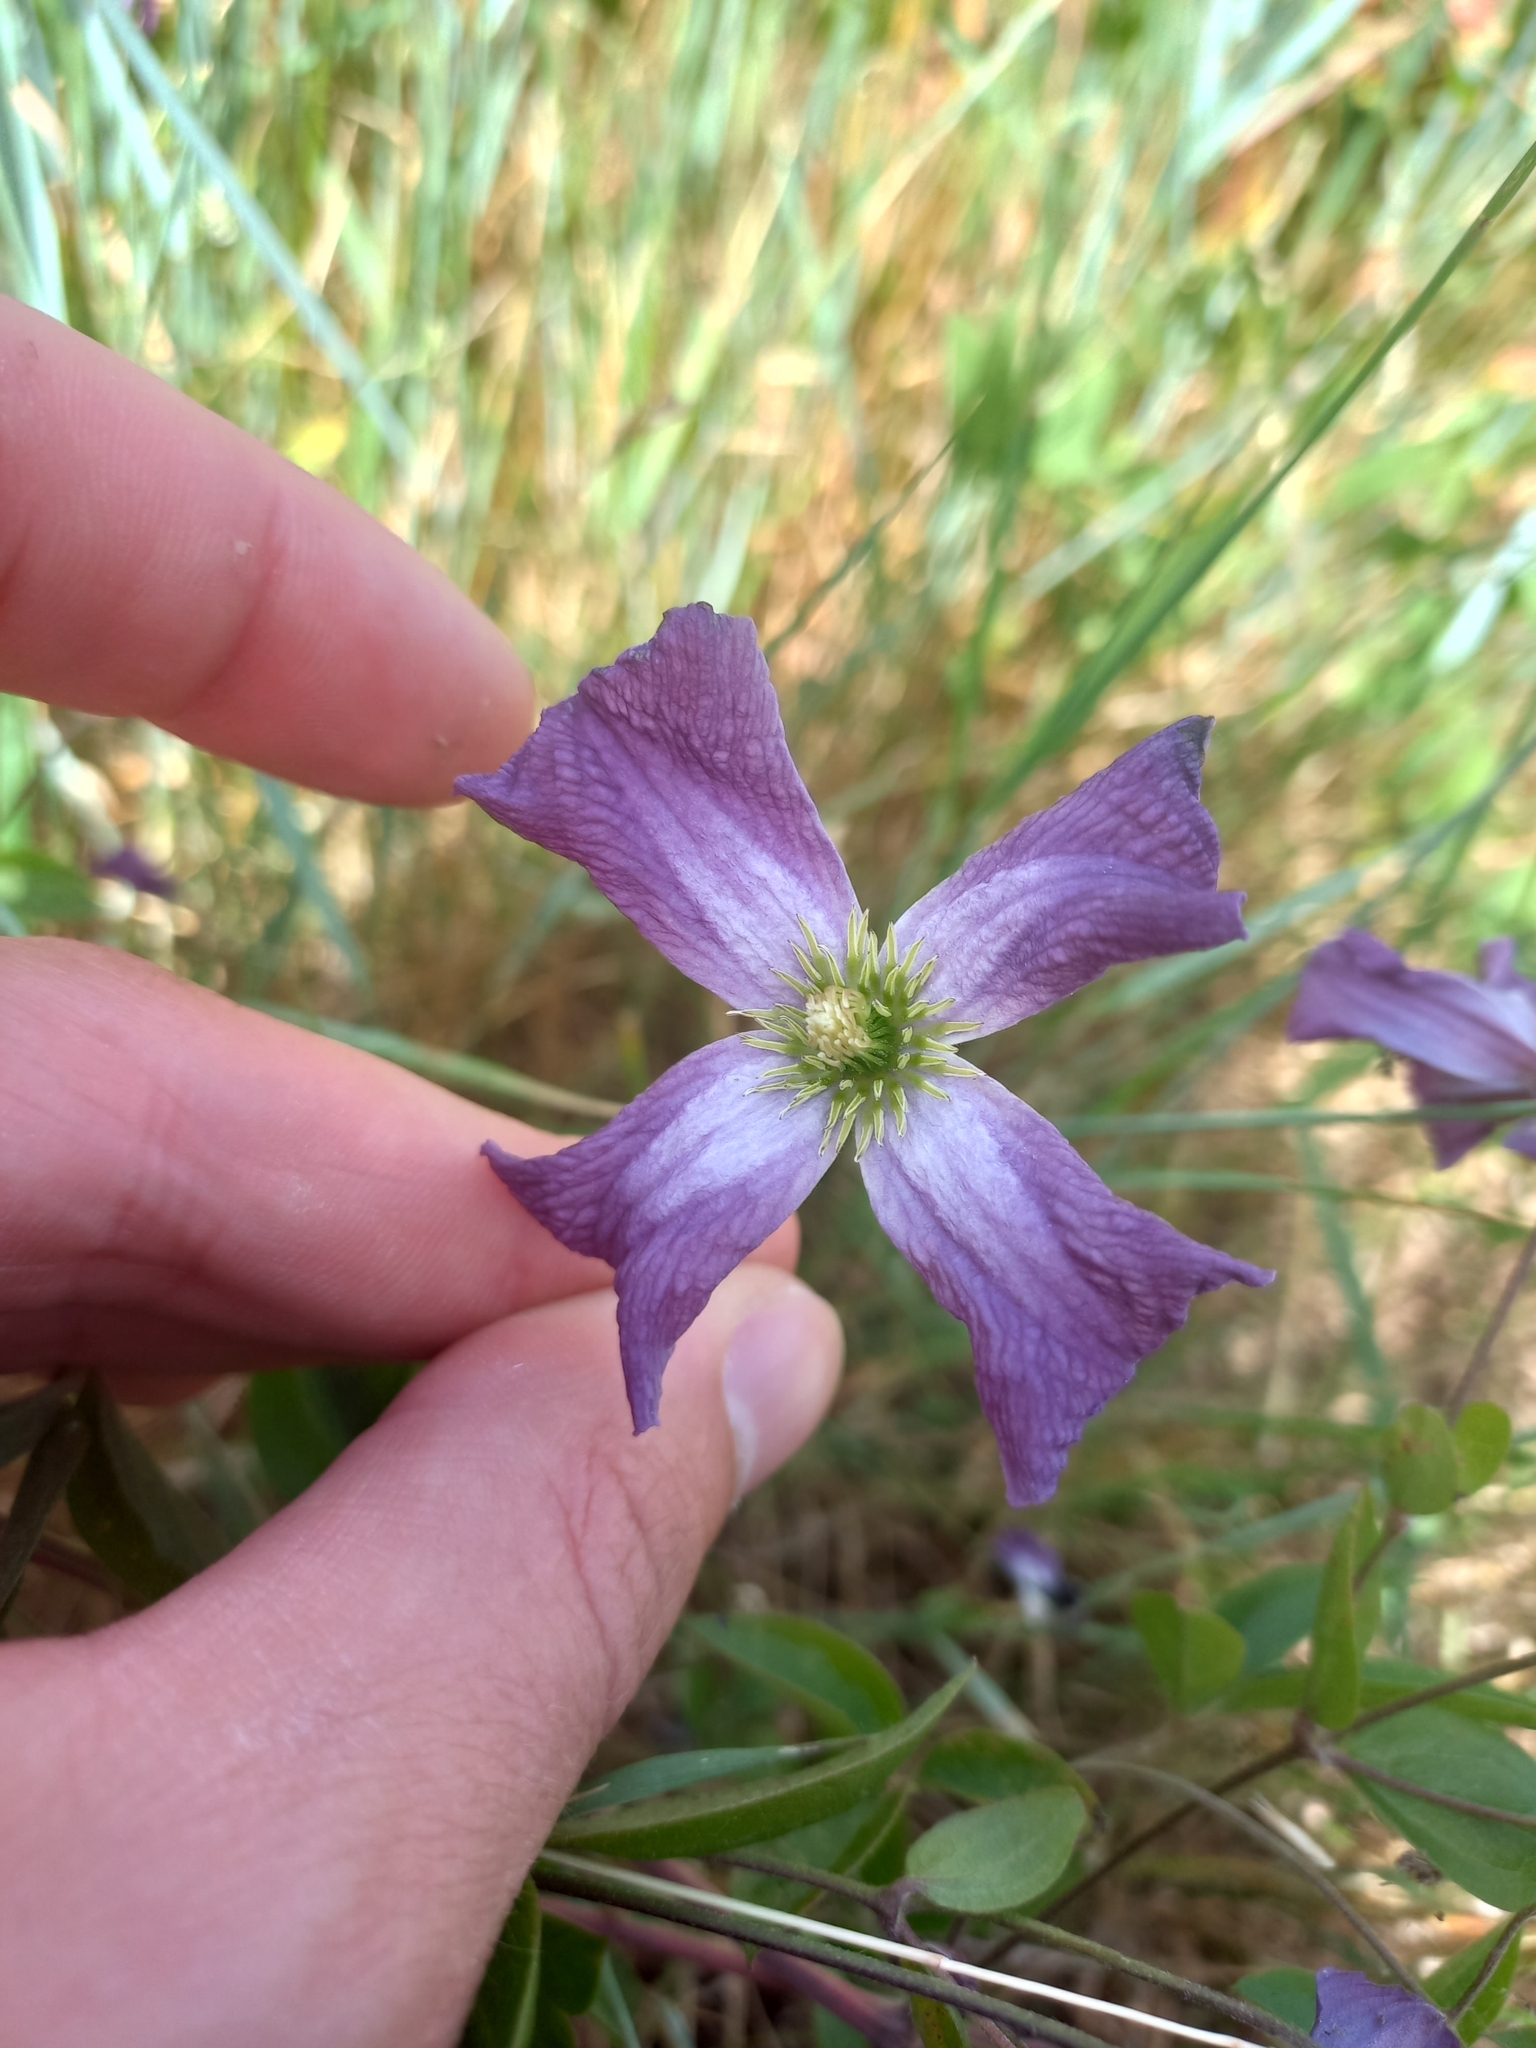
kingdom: Plantae
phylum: Tracheophyta
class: Magnoliopsida
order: Ranunculales
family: Ranunculaceae
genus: Clematis
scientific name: Clematis viticella
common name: Purple clematis
